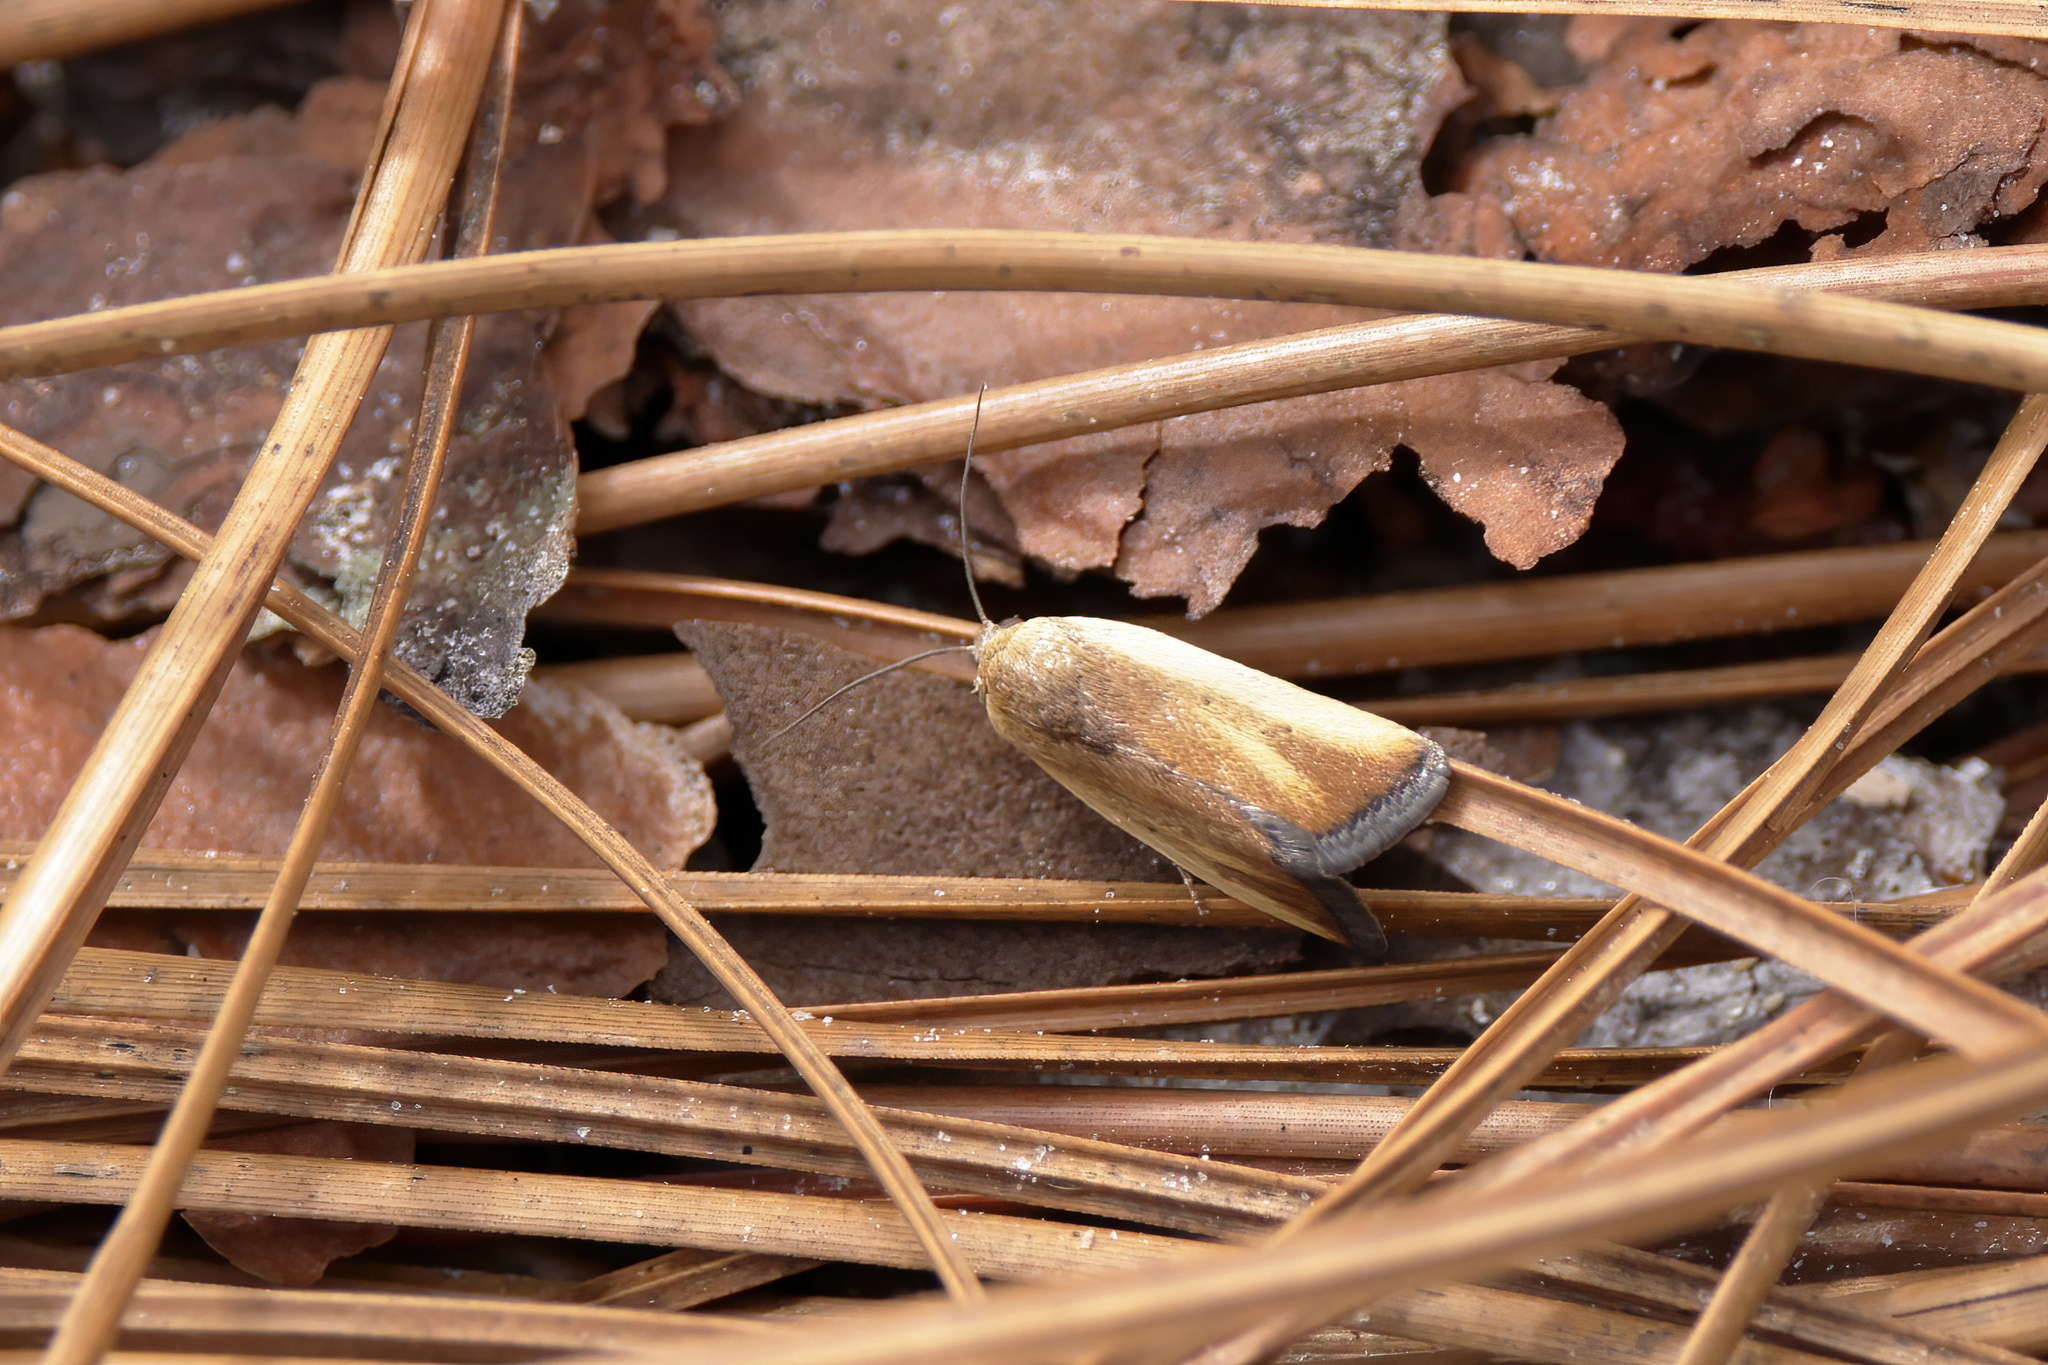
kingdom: Animalia
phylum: Arthropoda
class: Insecta
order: Lepidoptera
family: Noctuidae
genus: Acontia
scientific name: Acontia parvula
